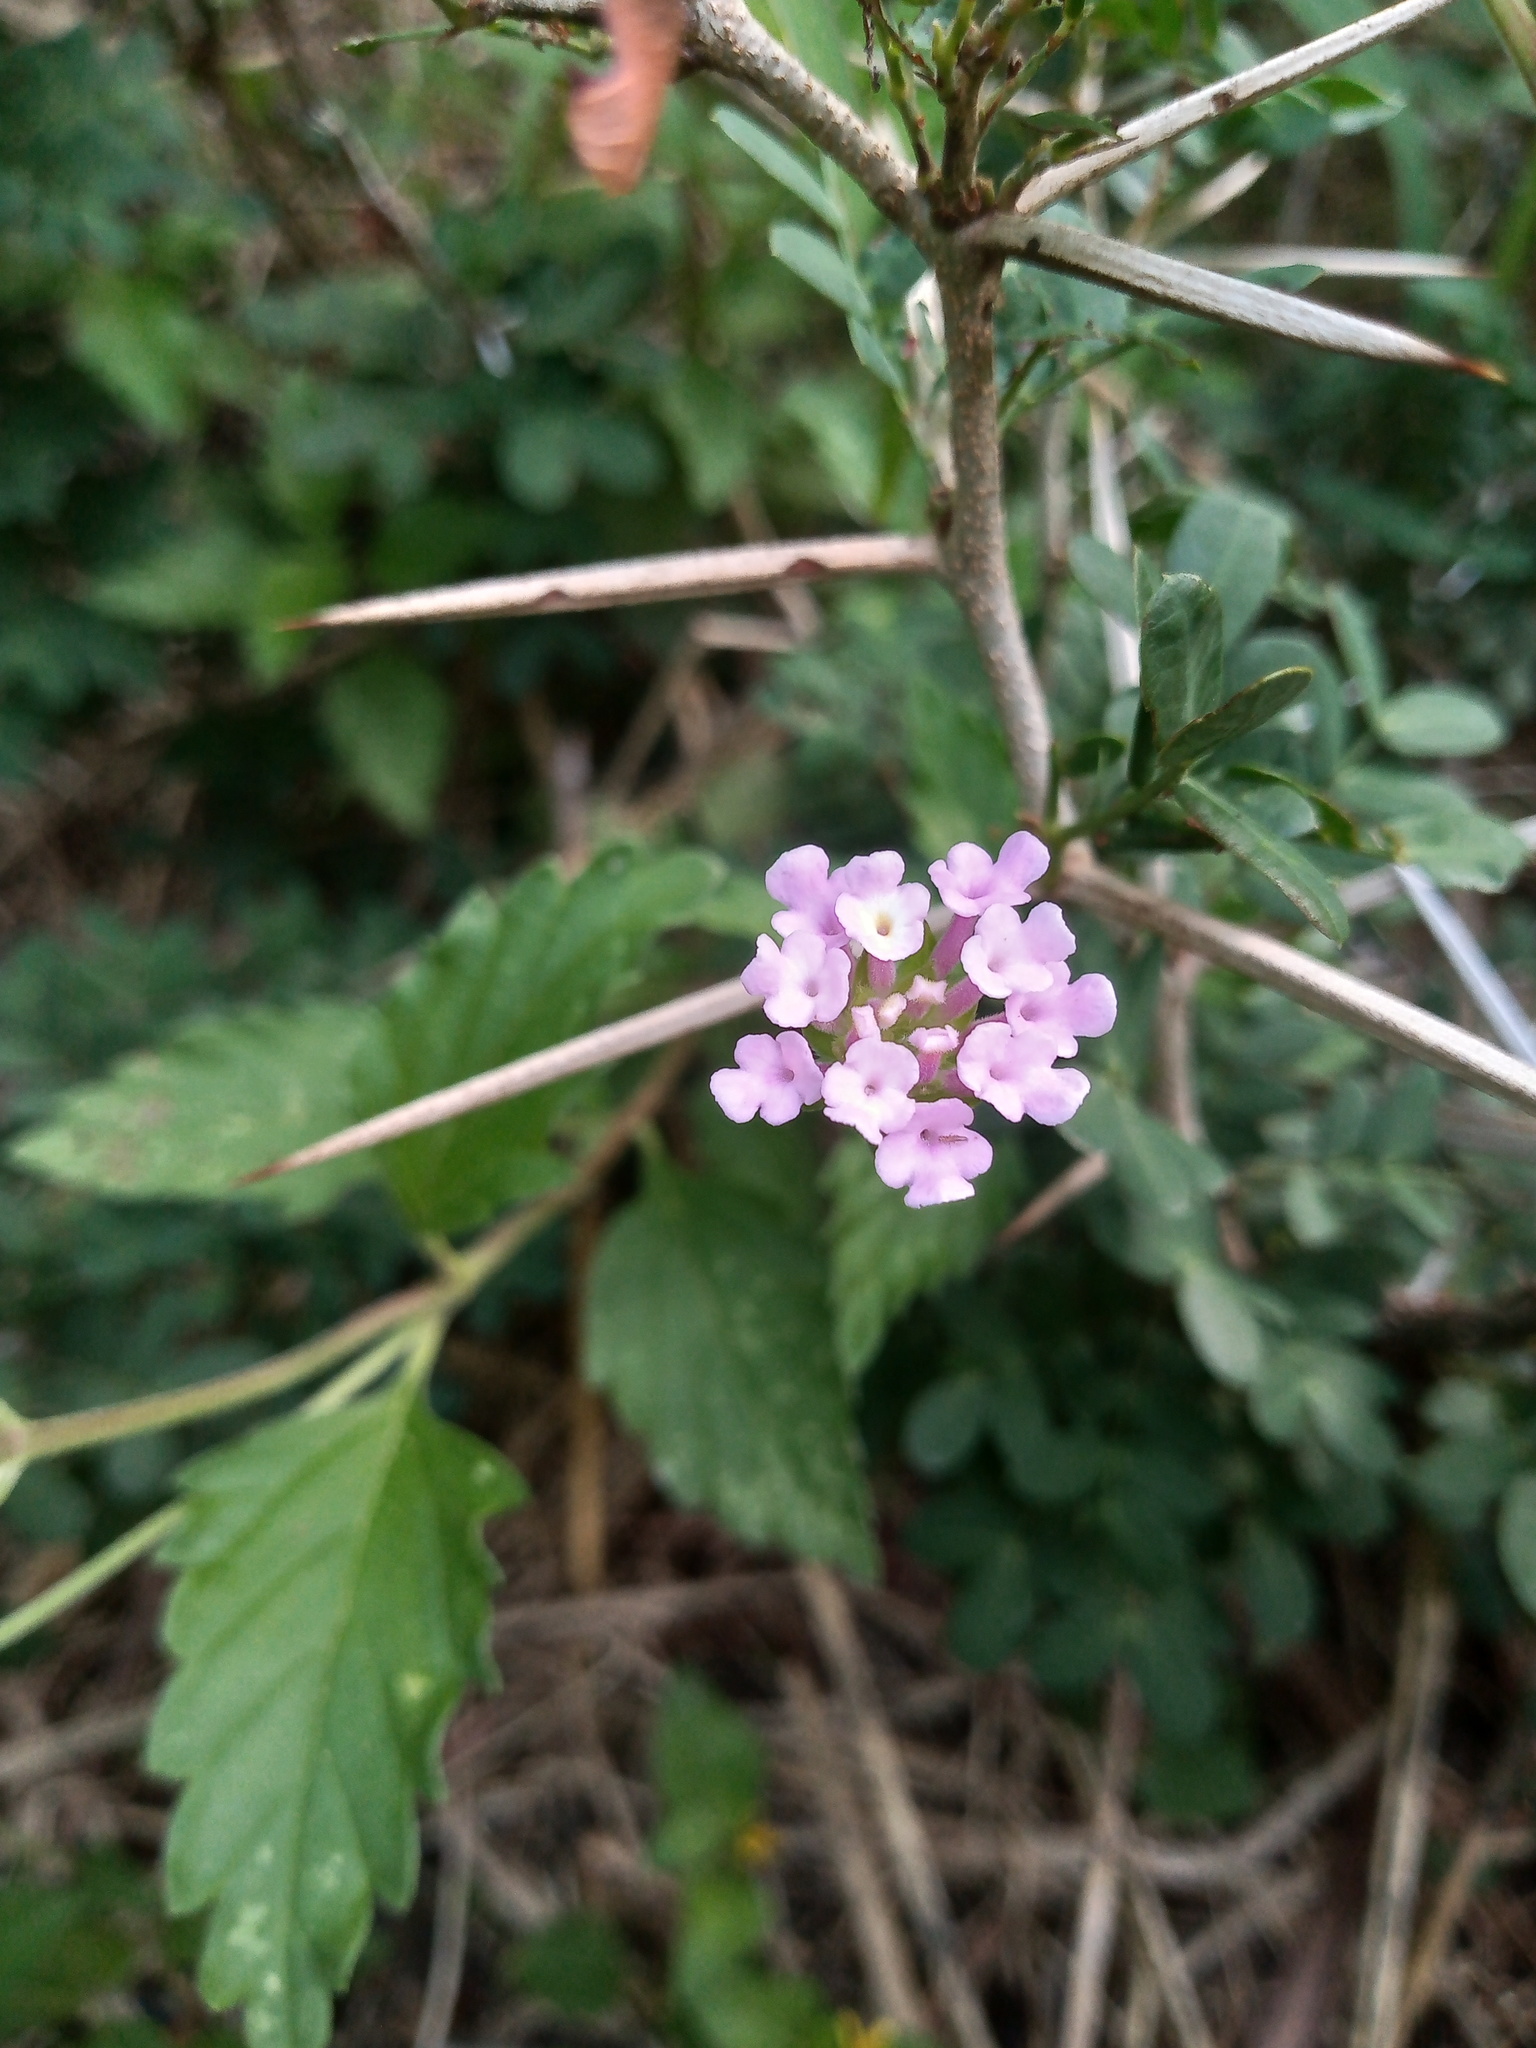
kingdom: Plantae
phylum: Tracheophyta
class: Magnoliopsida
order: Lamiales
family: Verbenaceae
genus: Lantana
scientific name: Lantana achyranthifolia
